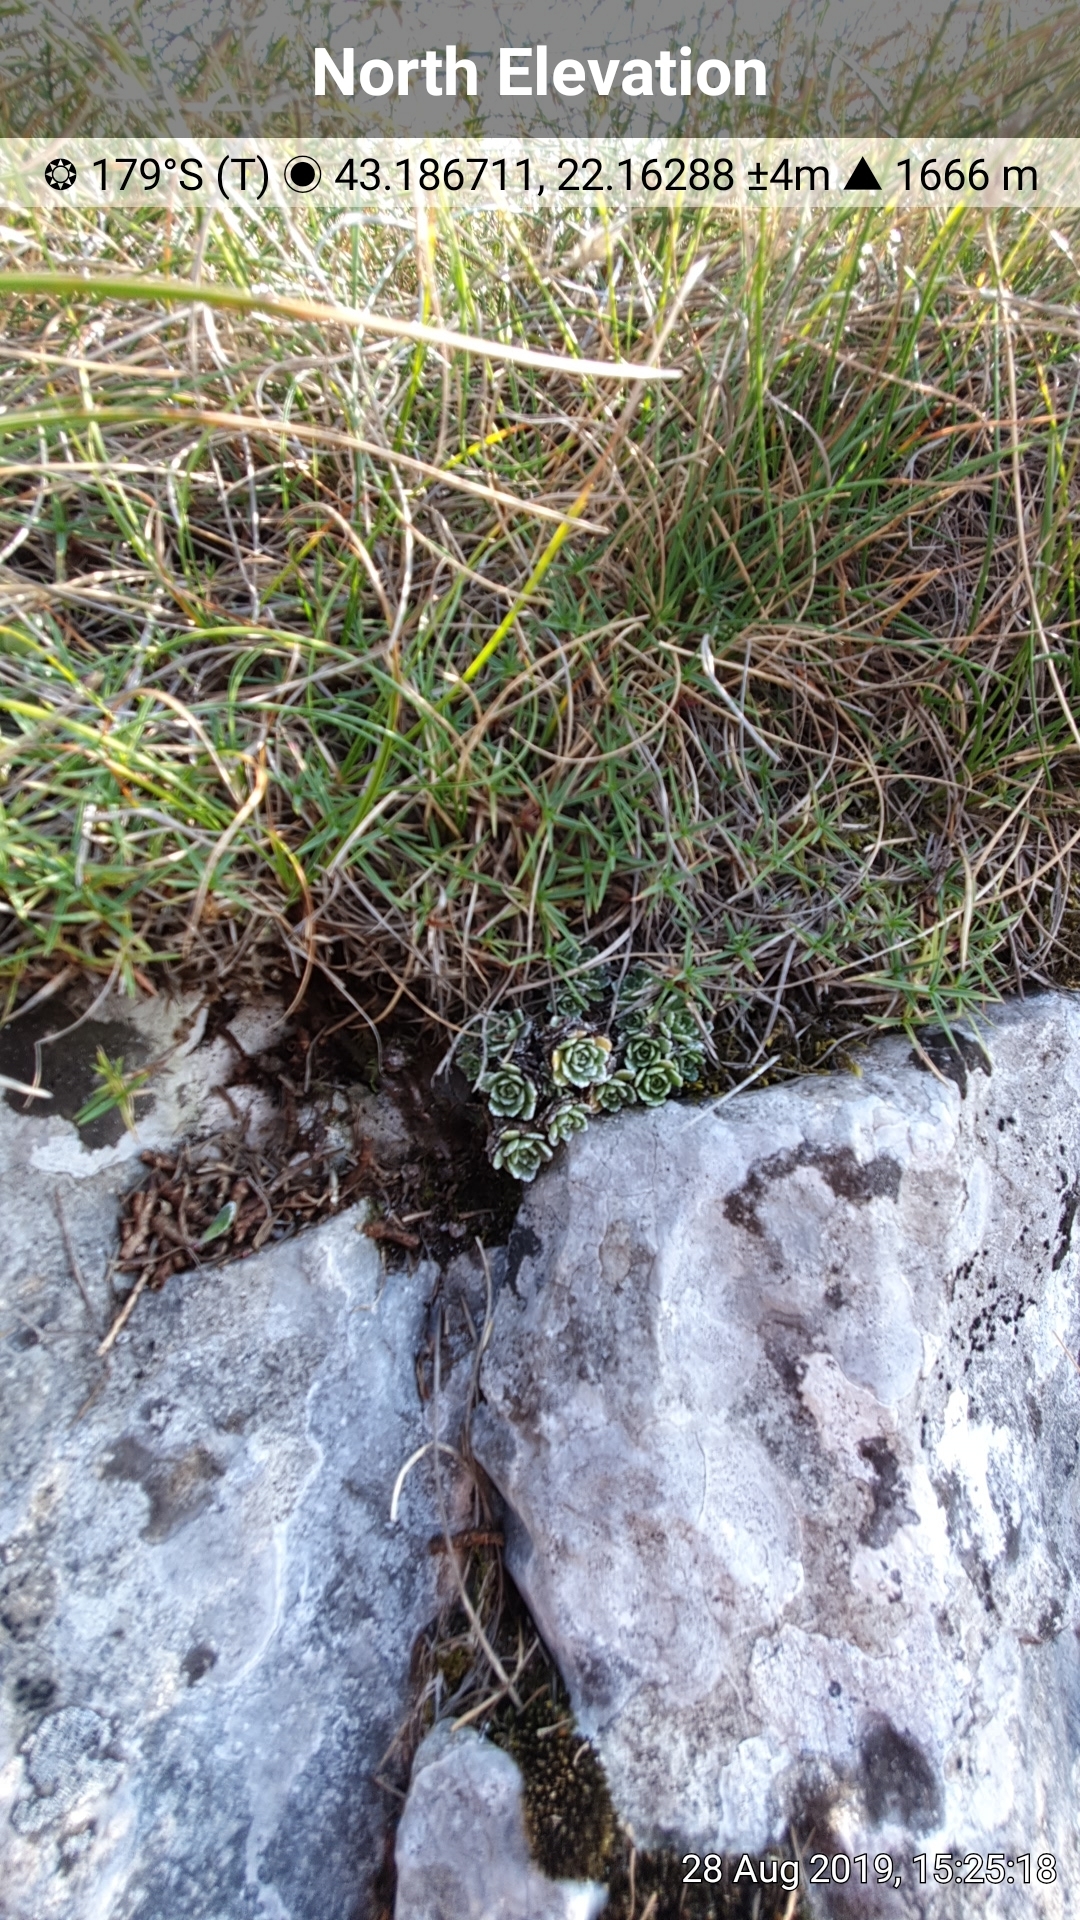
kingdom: Plantae
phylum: Tracheophyta
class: Magnoliopsida
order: Saxifragales
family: Saxifragaceae
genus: Saxifraga
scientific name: Saxifraga paniculata
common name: Livelong saxifrage
